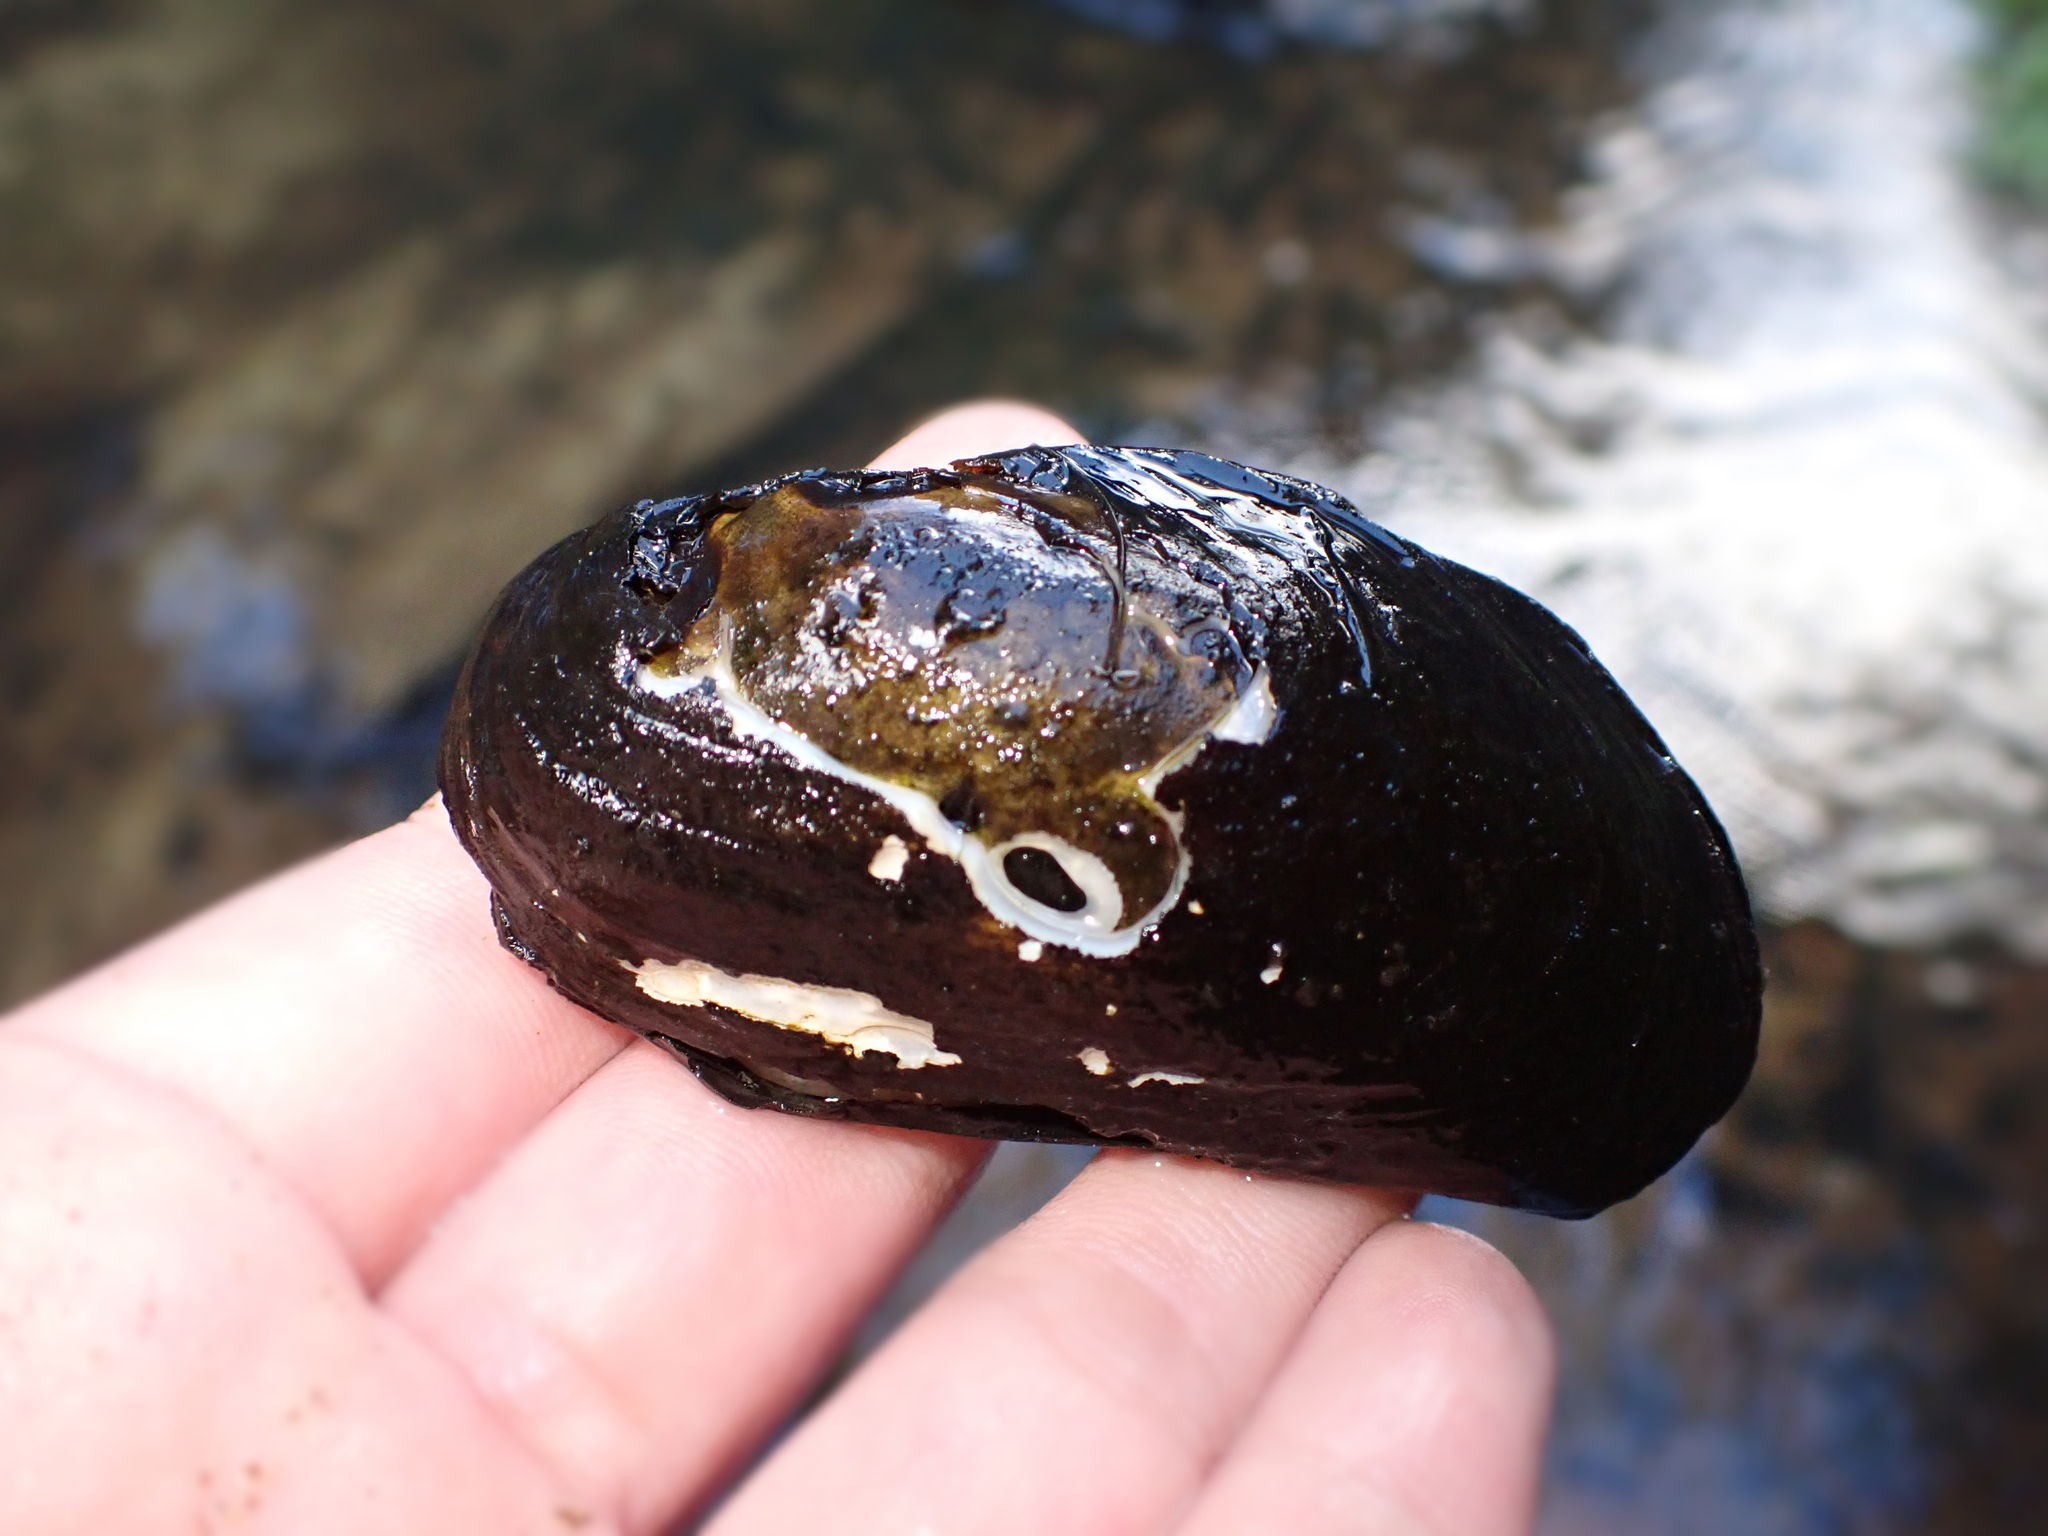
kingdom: Animalia
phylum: Mollusca
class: Bivalvia
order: Unionida
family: Hyriidae
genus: Echyridella
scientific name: Echyridella menziesii
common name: New zealand freshwater mussel
